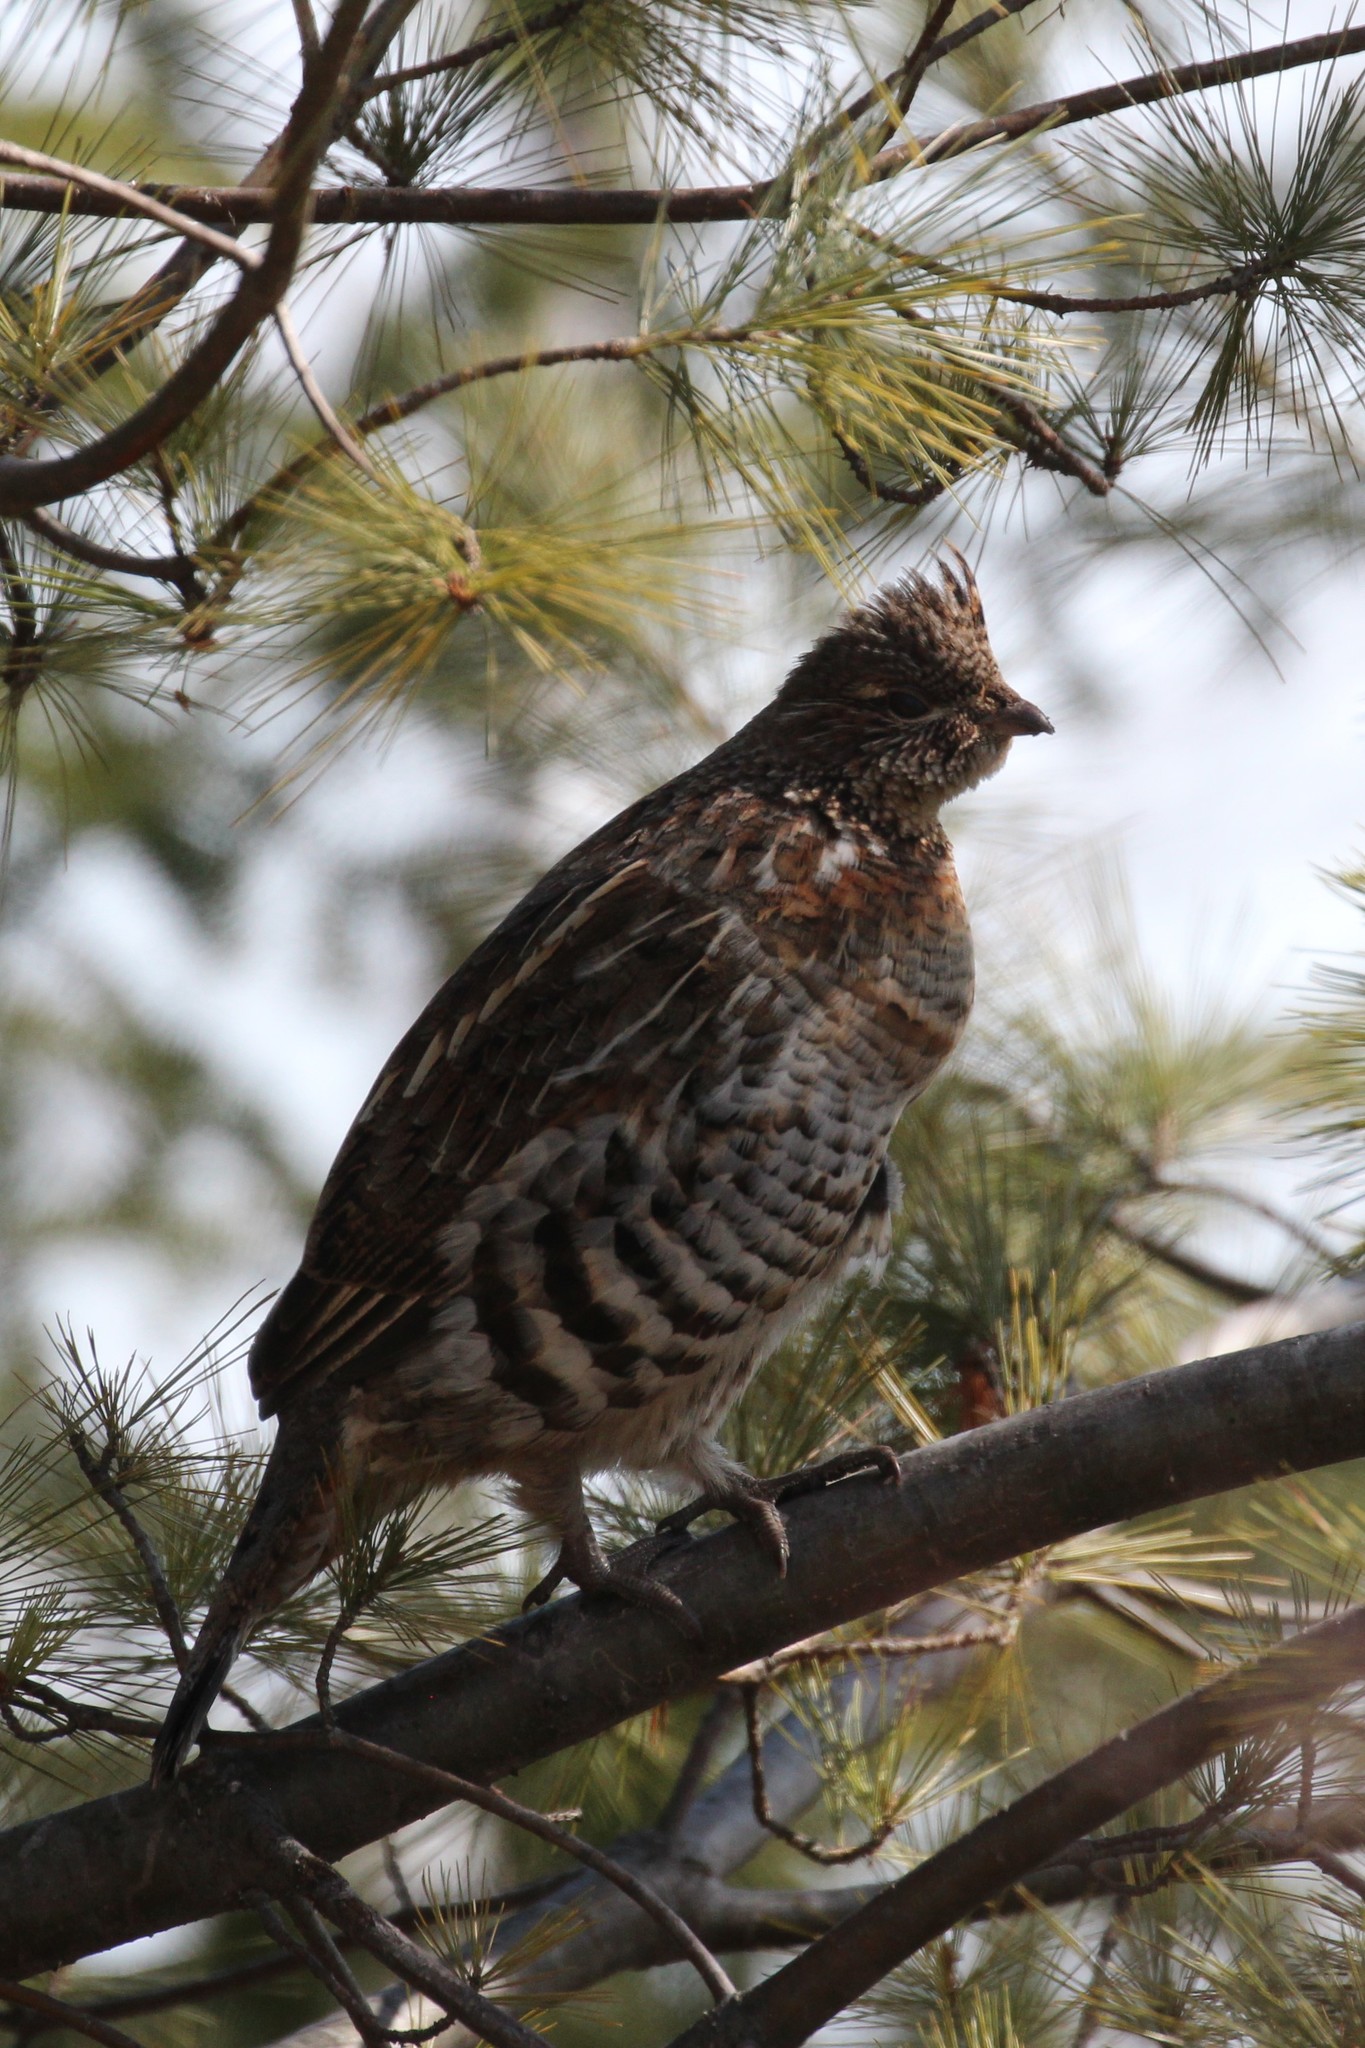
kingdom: Animalia
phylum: Chordata
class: Aves
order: Galliformes
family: Phasianidae
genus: Bonasa
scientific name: Bonasa umbellus
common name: Ruffed grouse
